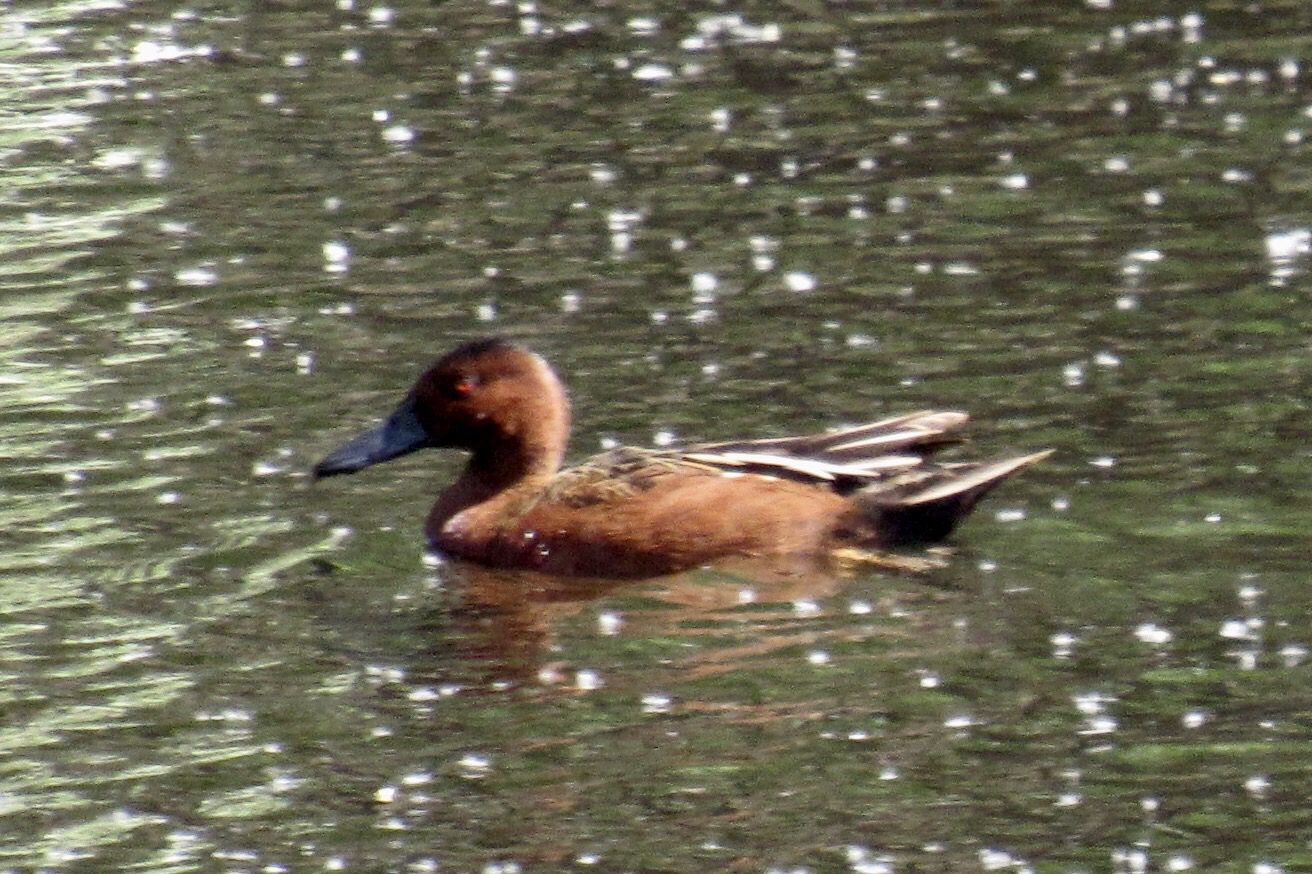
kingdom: Animalia
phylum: Chordata
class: Aves
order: Anseriformes
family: Anatidae
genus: Spatula
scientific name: Spatula cyanoptera
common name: Cinnamon teal
